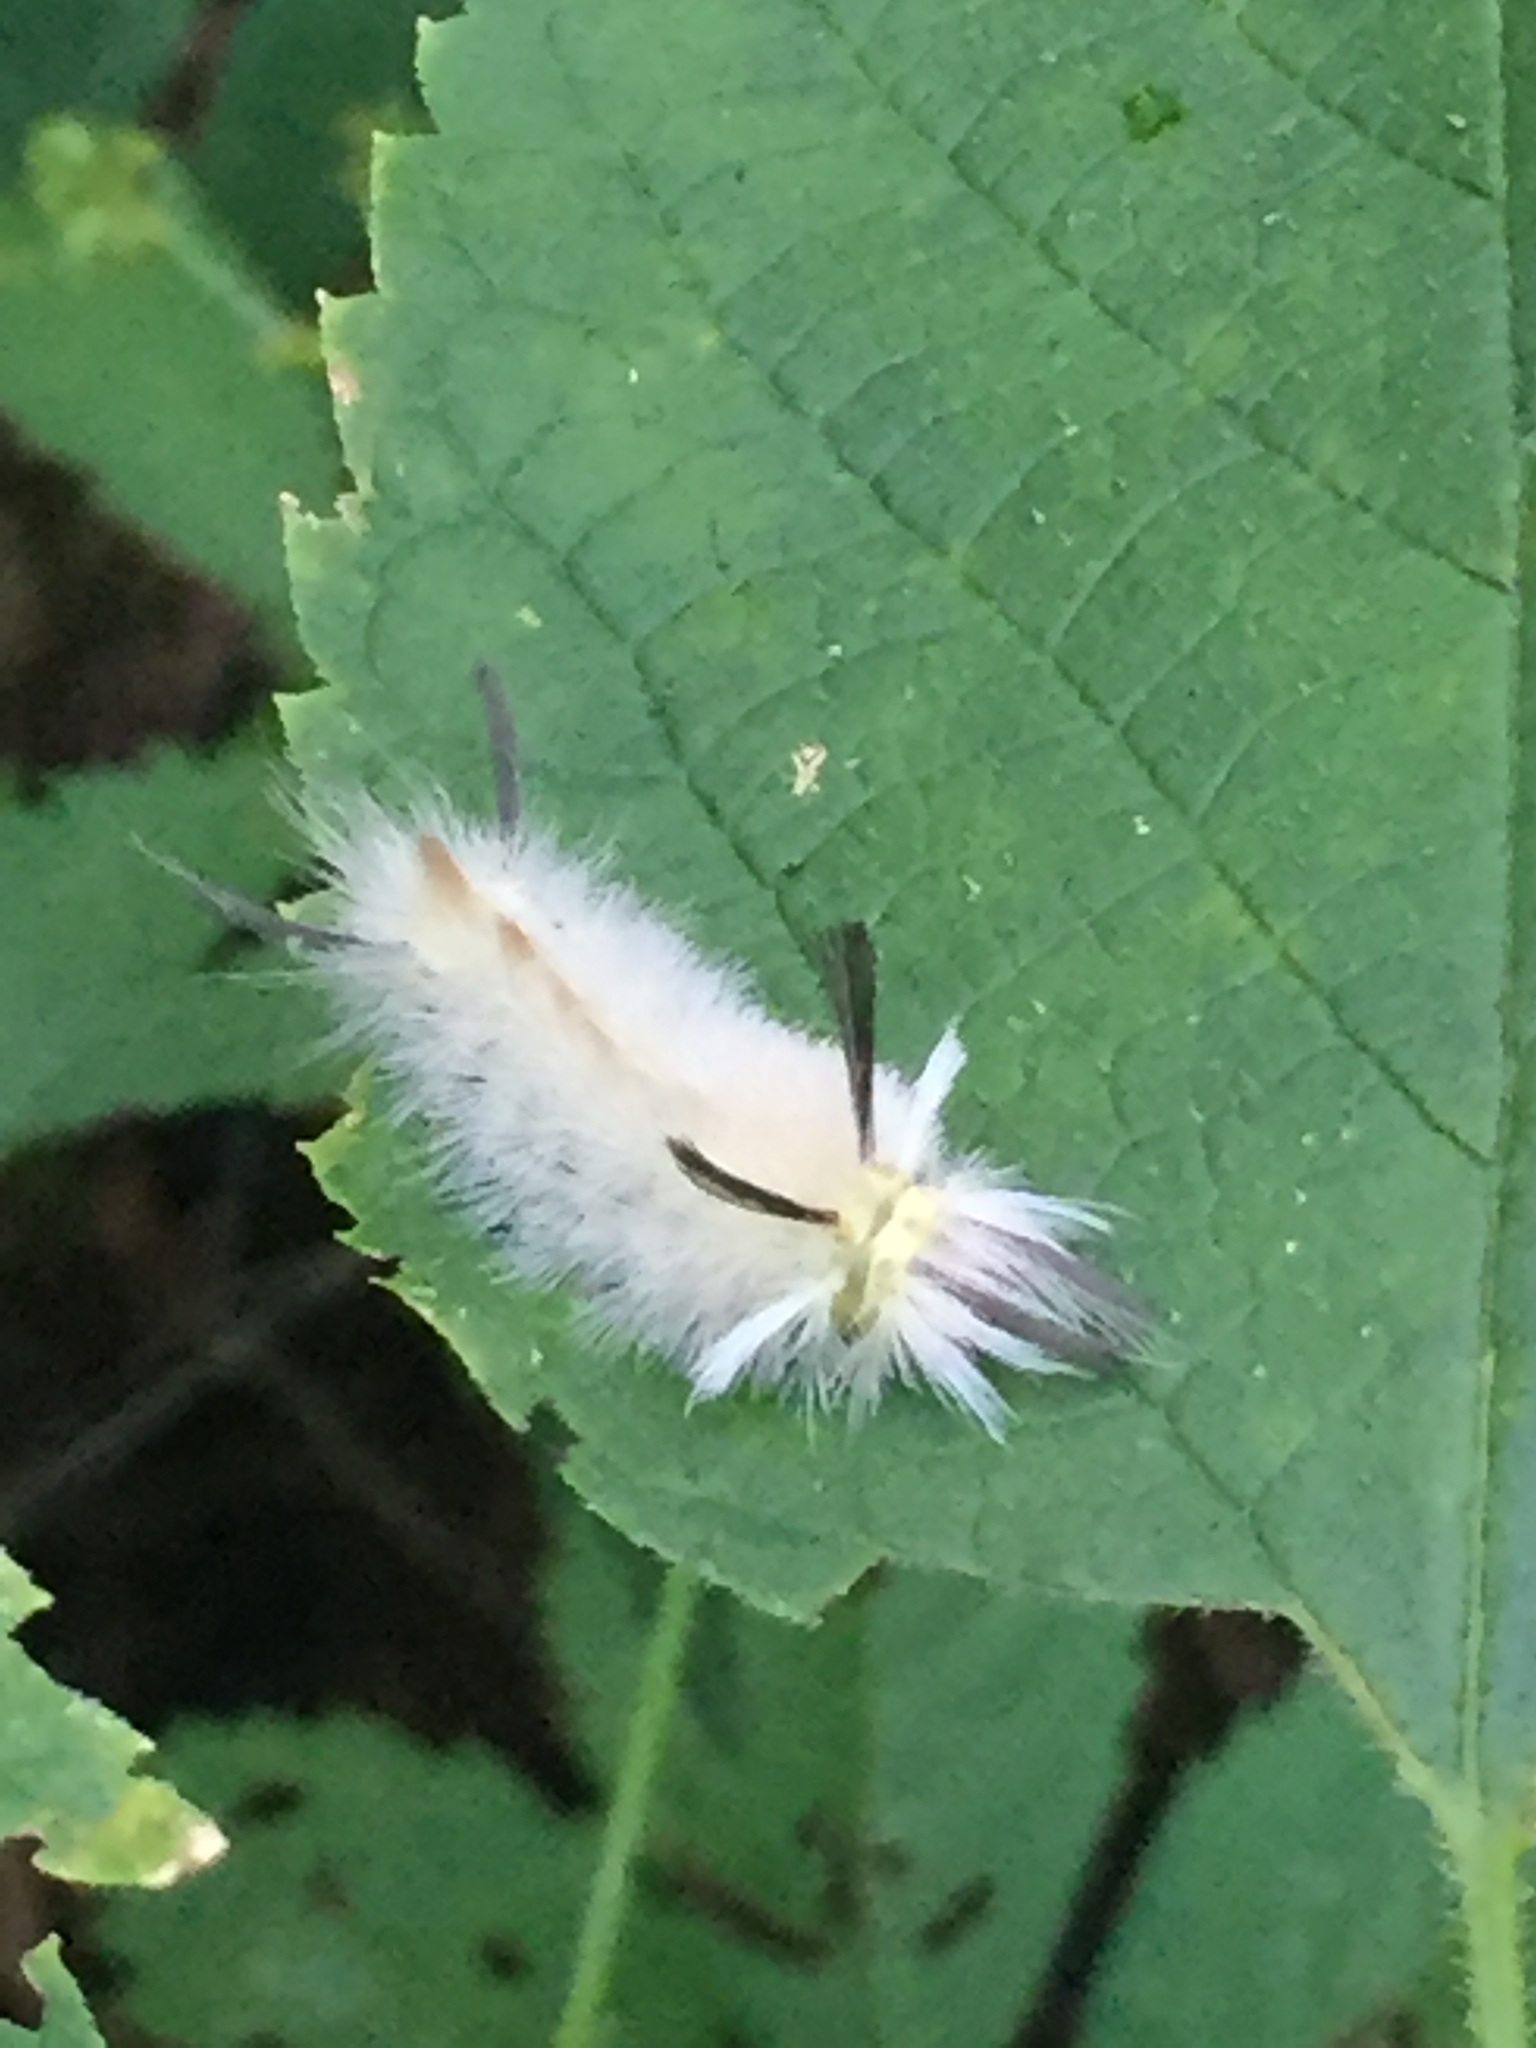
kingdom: Animalia
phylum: Arthropoda
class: Insecta
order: Lepidoptera
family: Erebidae
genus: Halysidota
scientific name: Halysidota tessellaris
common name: Banded tussock moth
